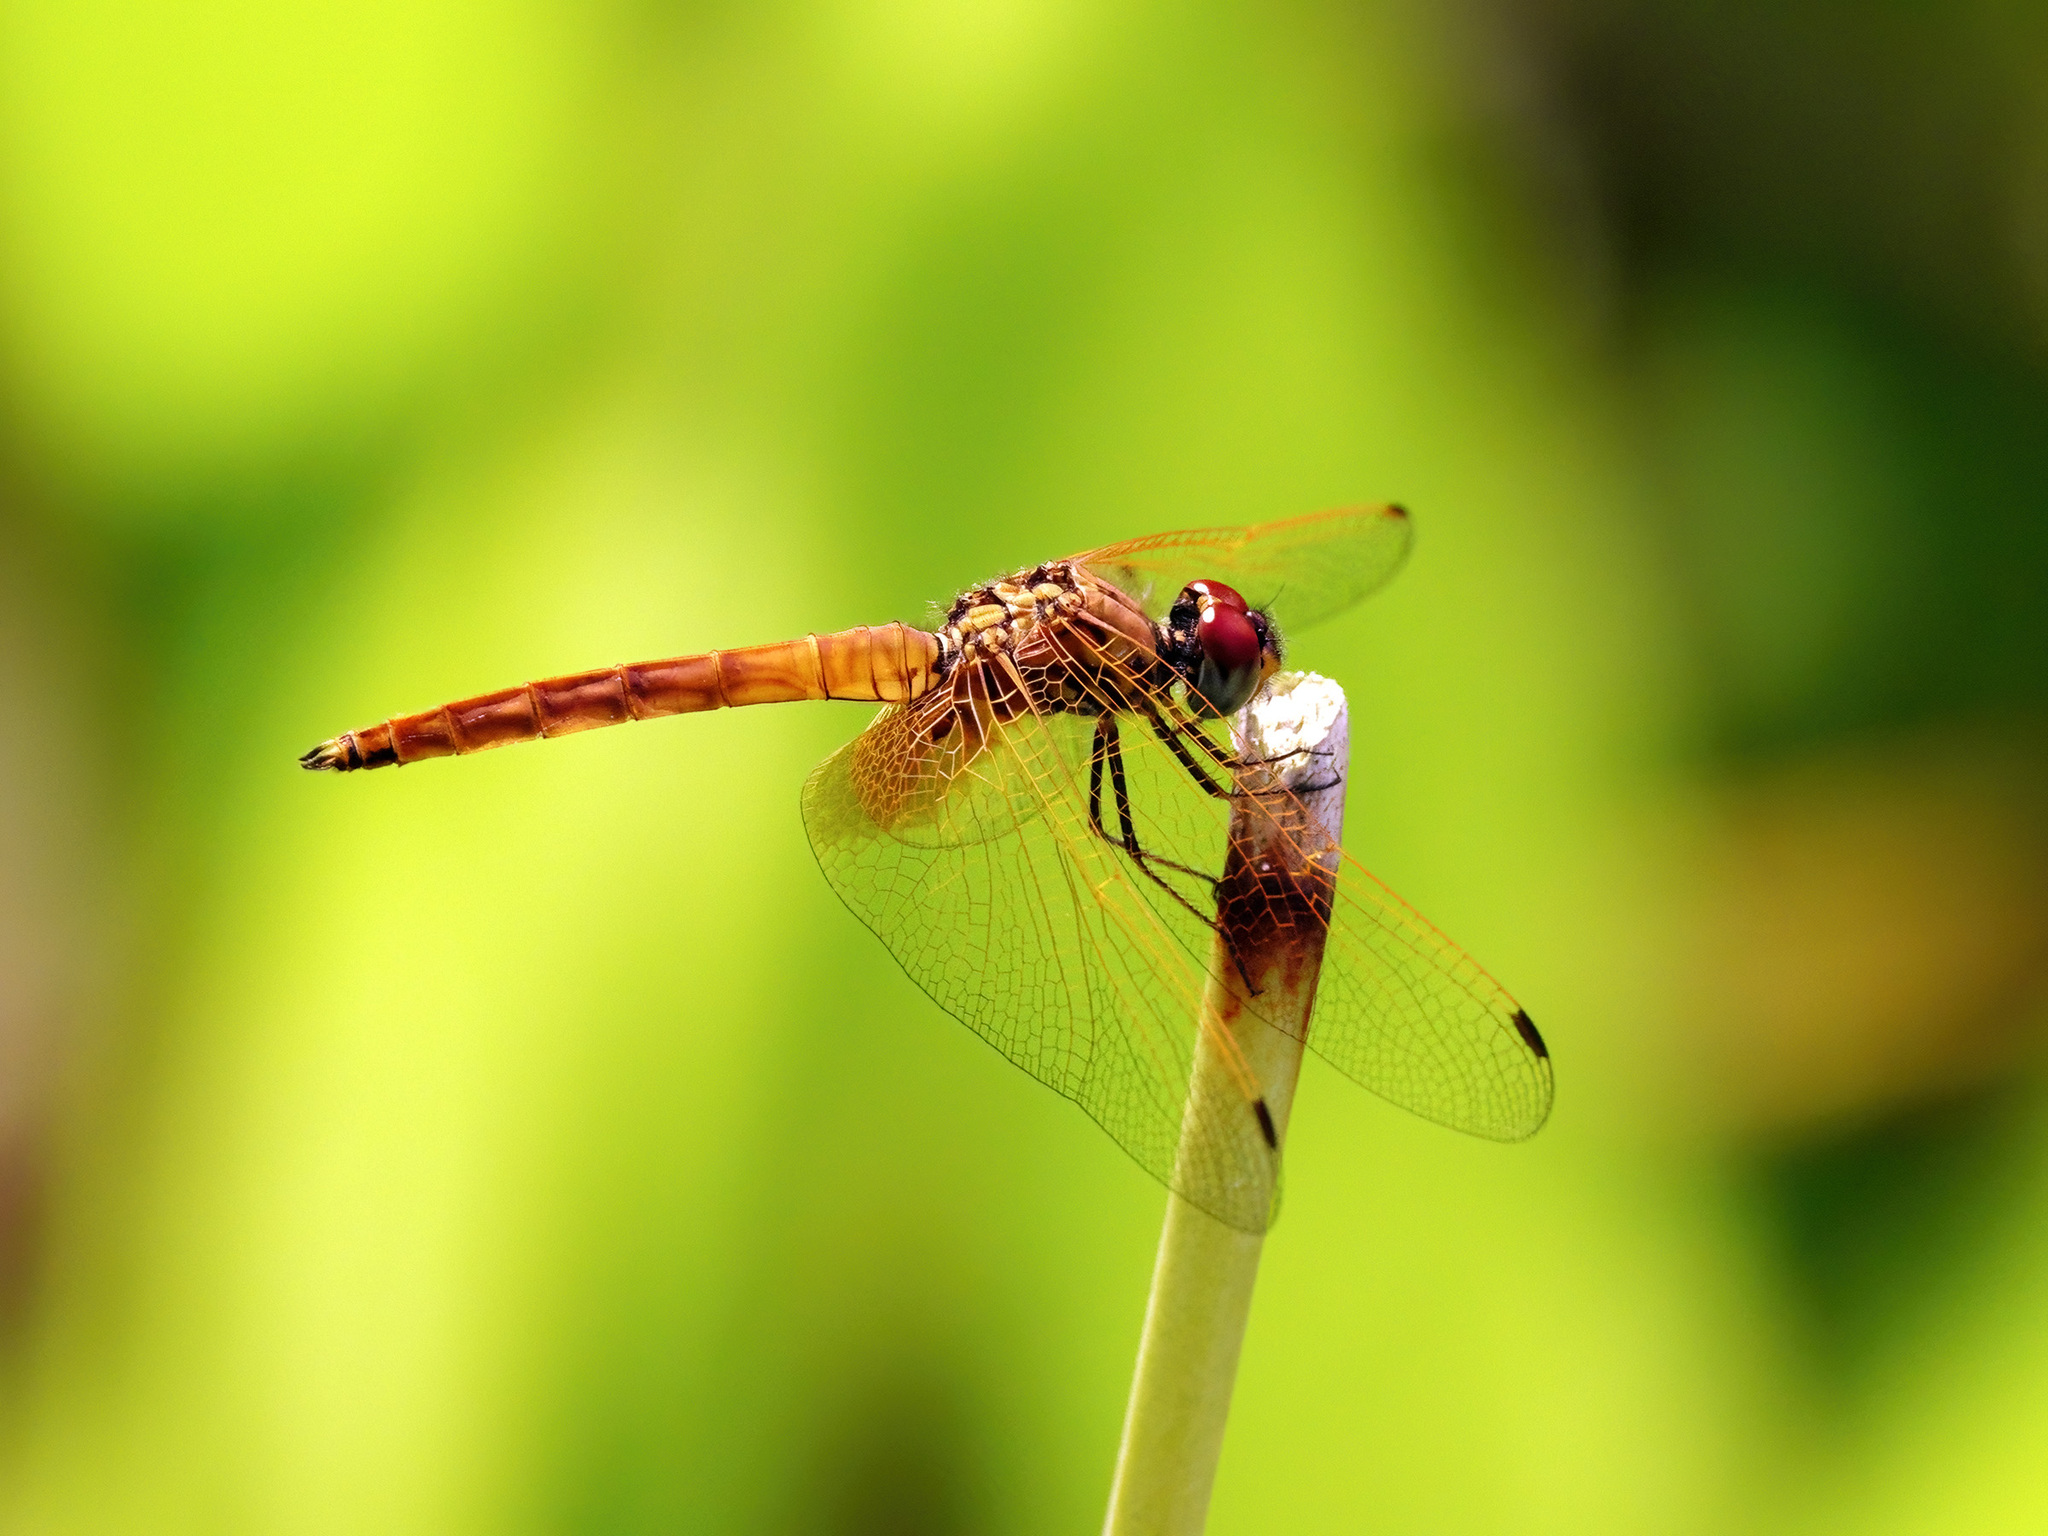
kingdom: Animalia
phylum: Arthropoda
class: Insecta
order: Odonata
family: Libellulidae
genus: Trithemis
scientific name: Trithemis aurora
